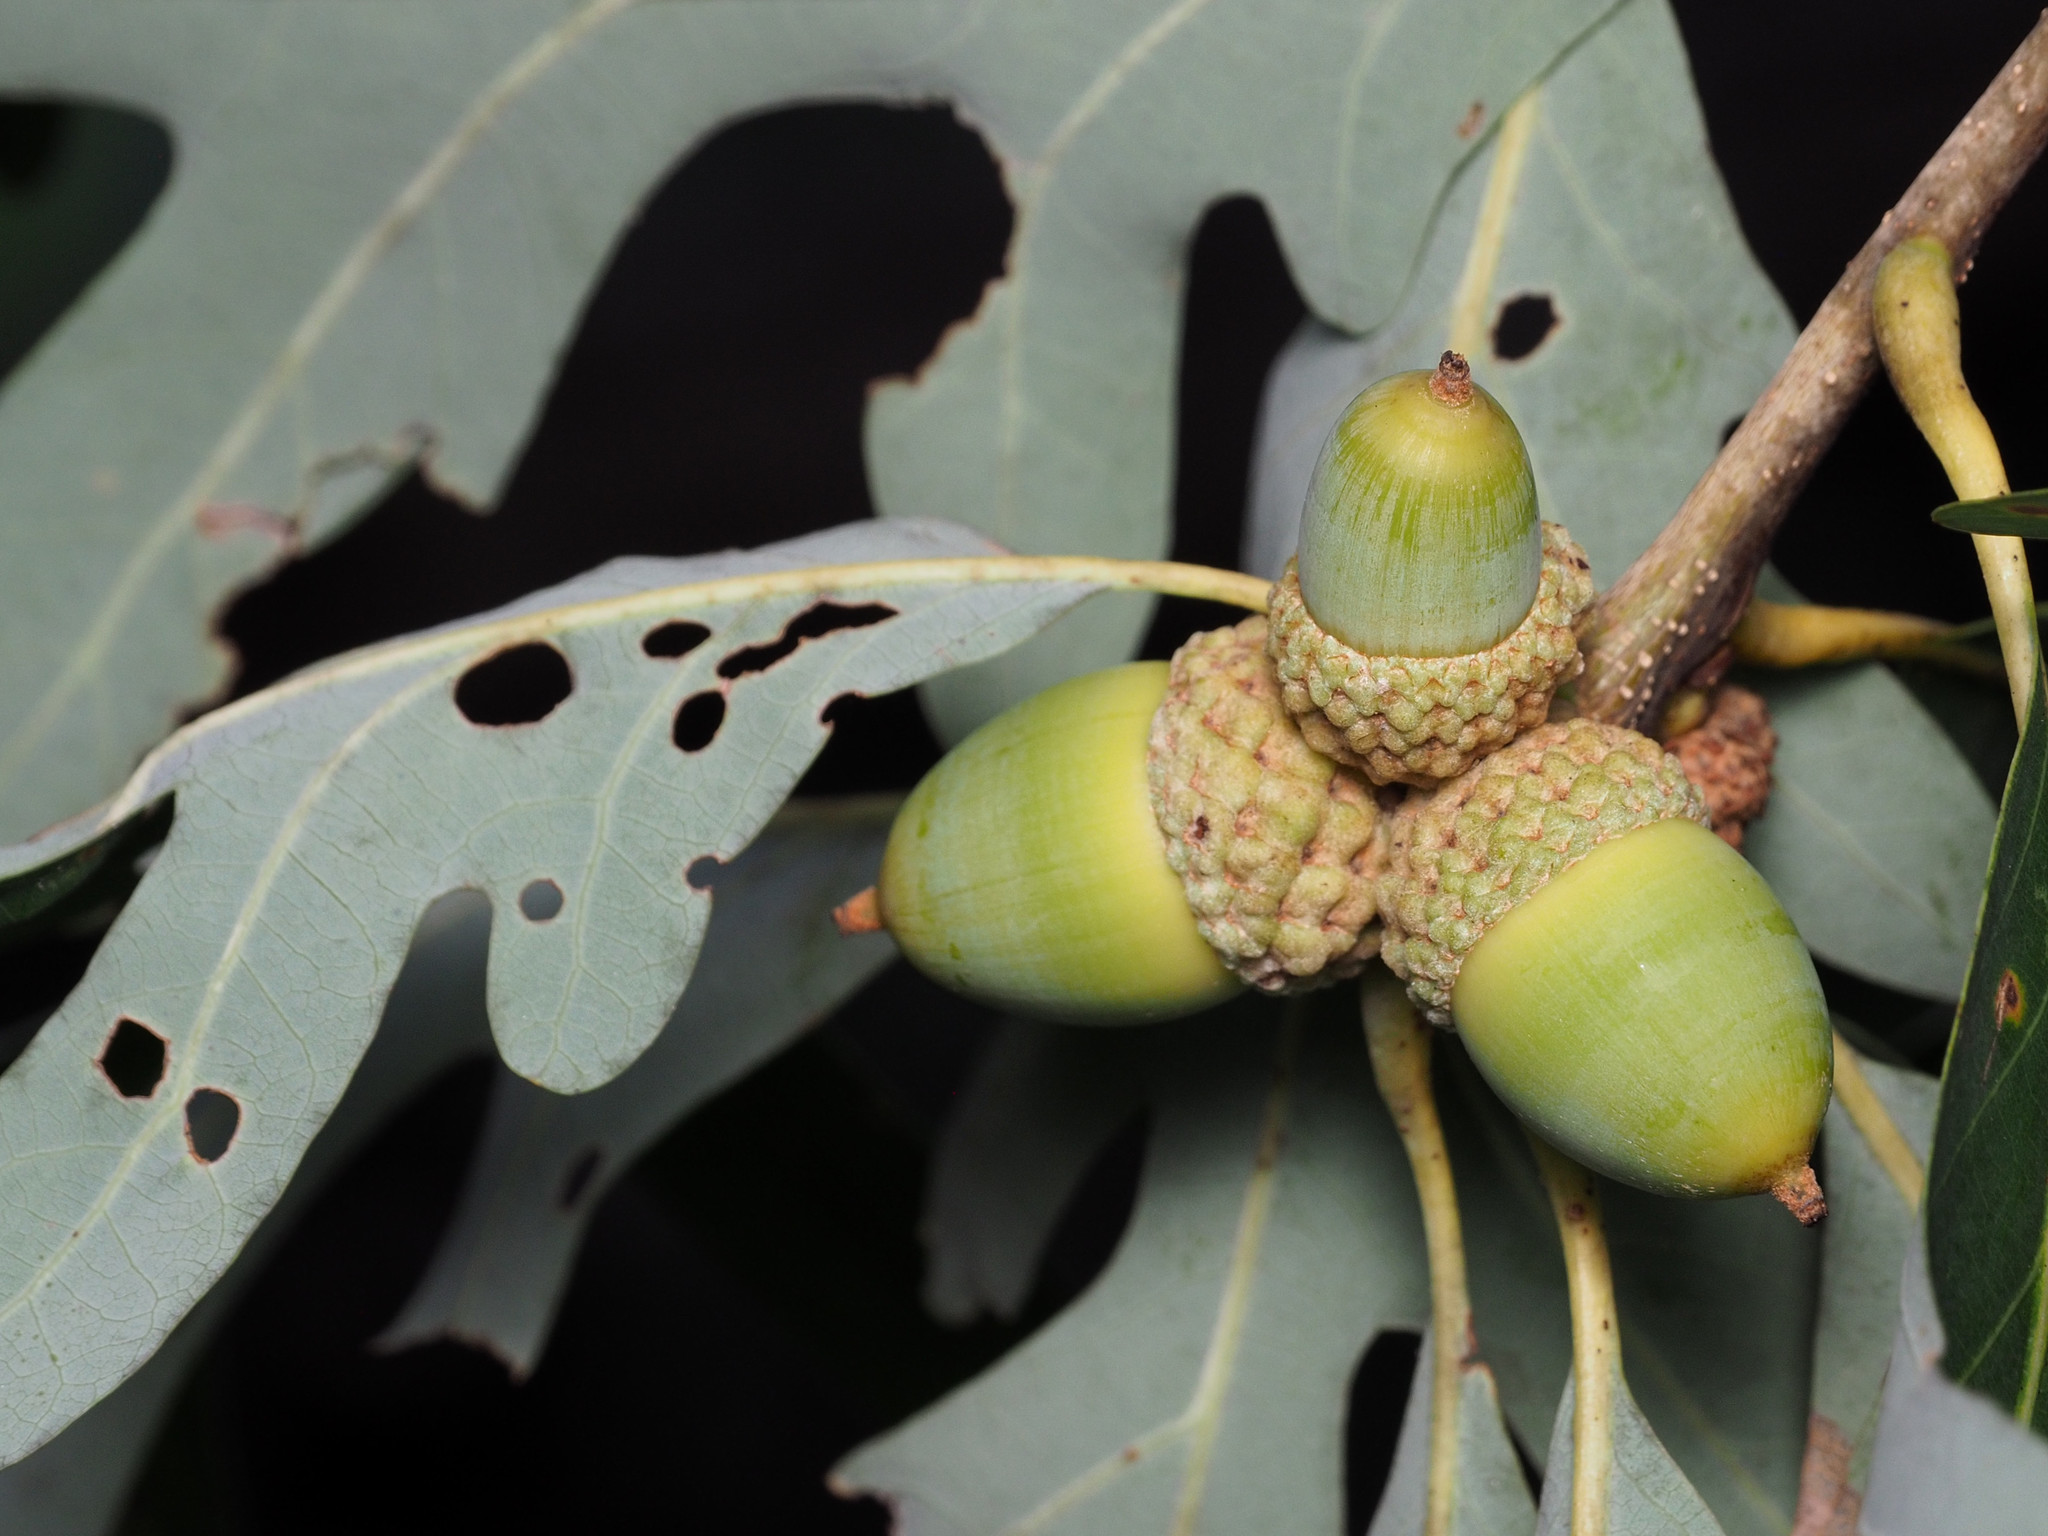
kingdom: Plantae
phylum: Tracheophyta
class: Magnoliopsida
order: Fagales
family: Fagaceae
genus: Quercus
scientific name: Quercus alba
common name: White oak
